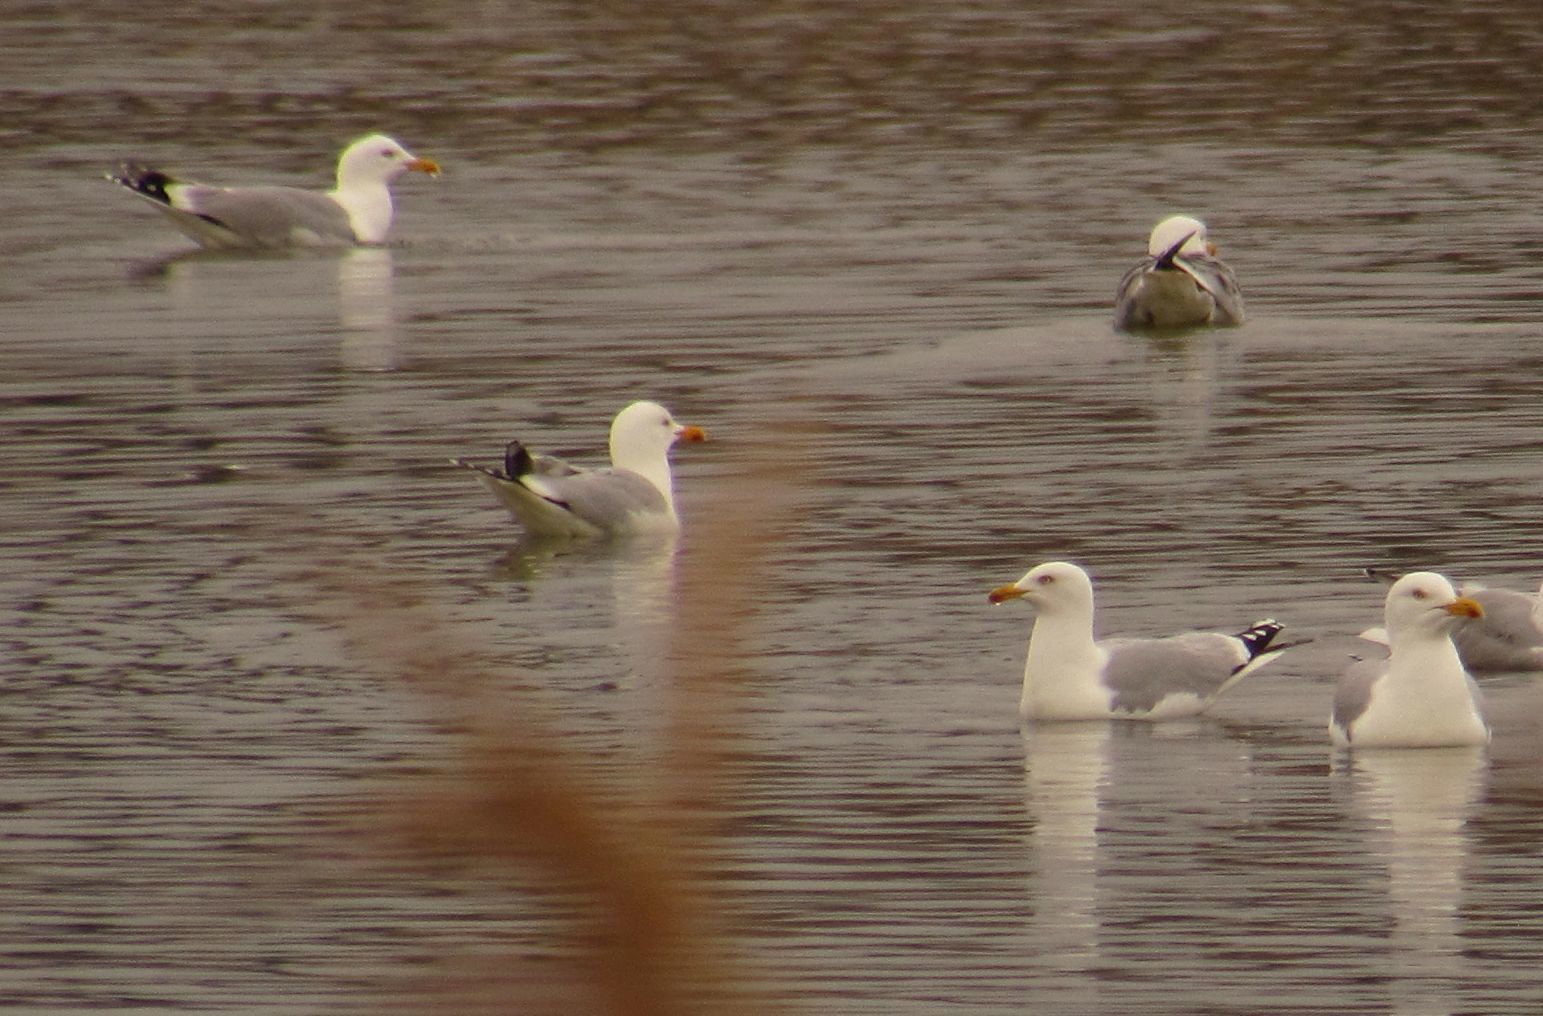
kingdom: Animalia
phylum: Chordata
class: Aves
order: Charadriiformes
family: Laridae
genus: Larus
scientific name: Larus argentatus
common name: Herring gull
